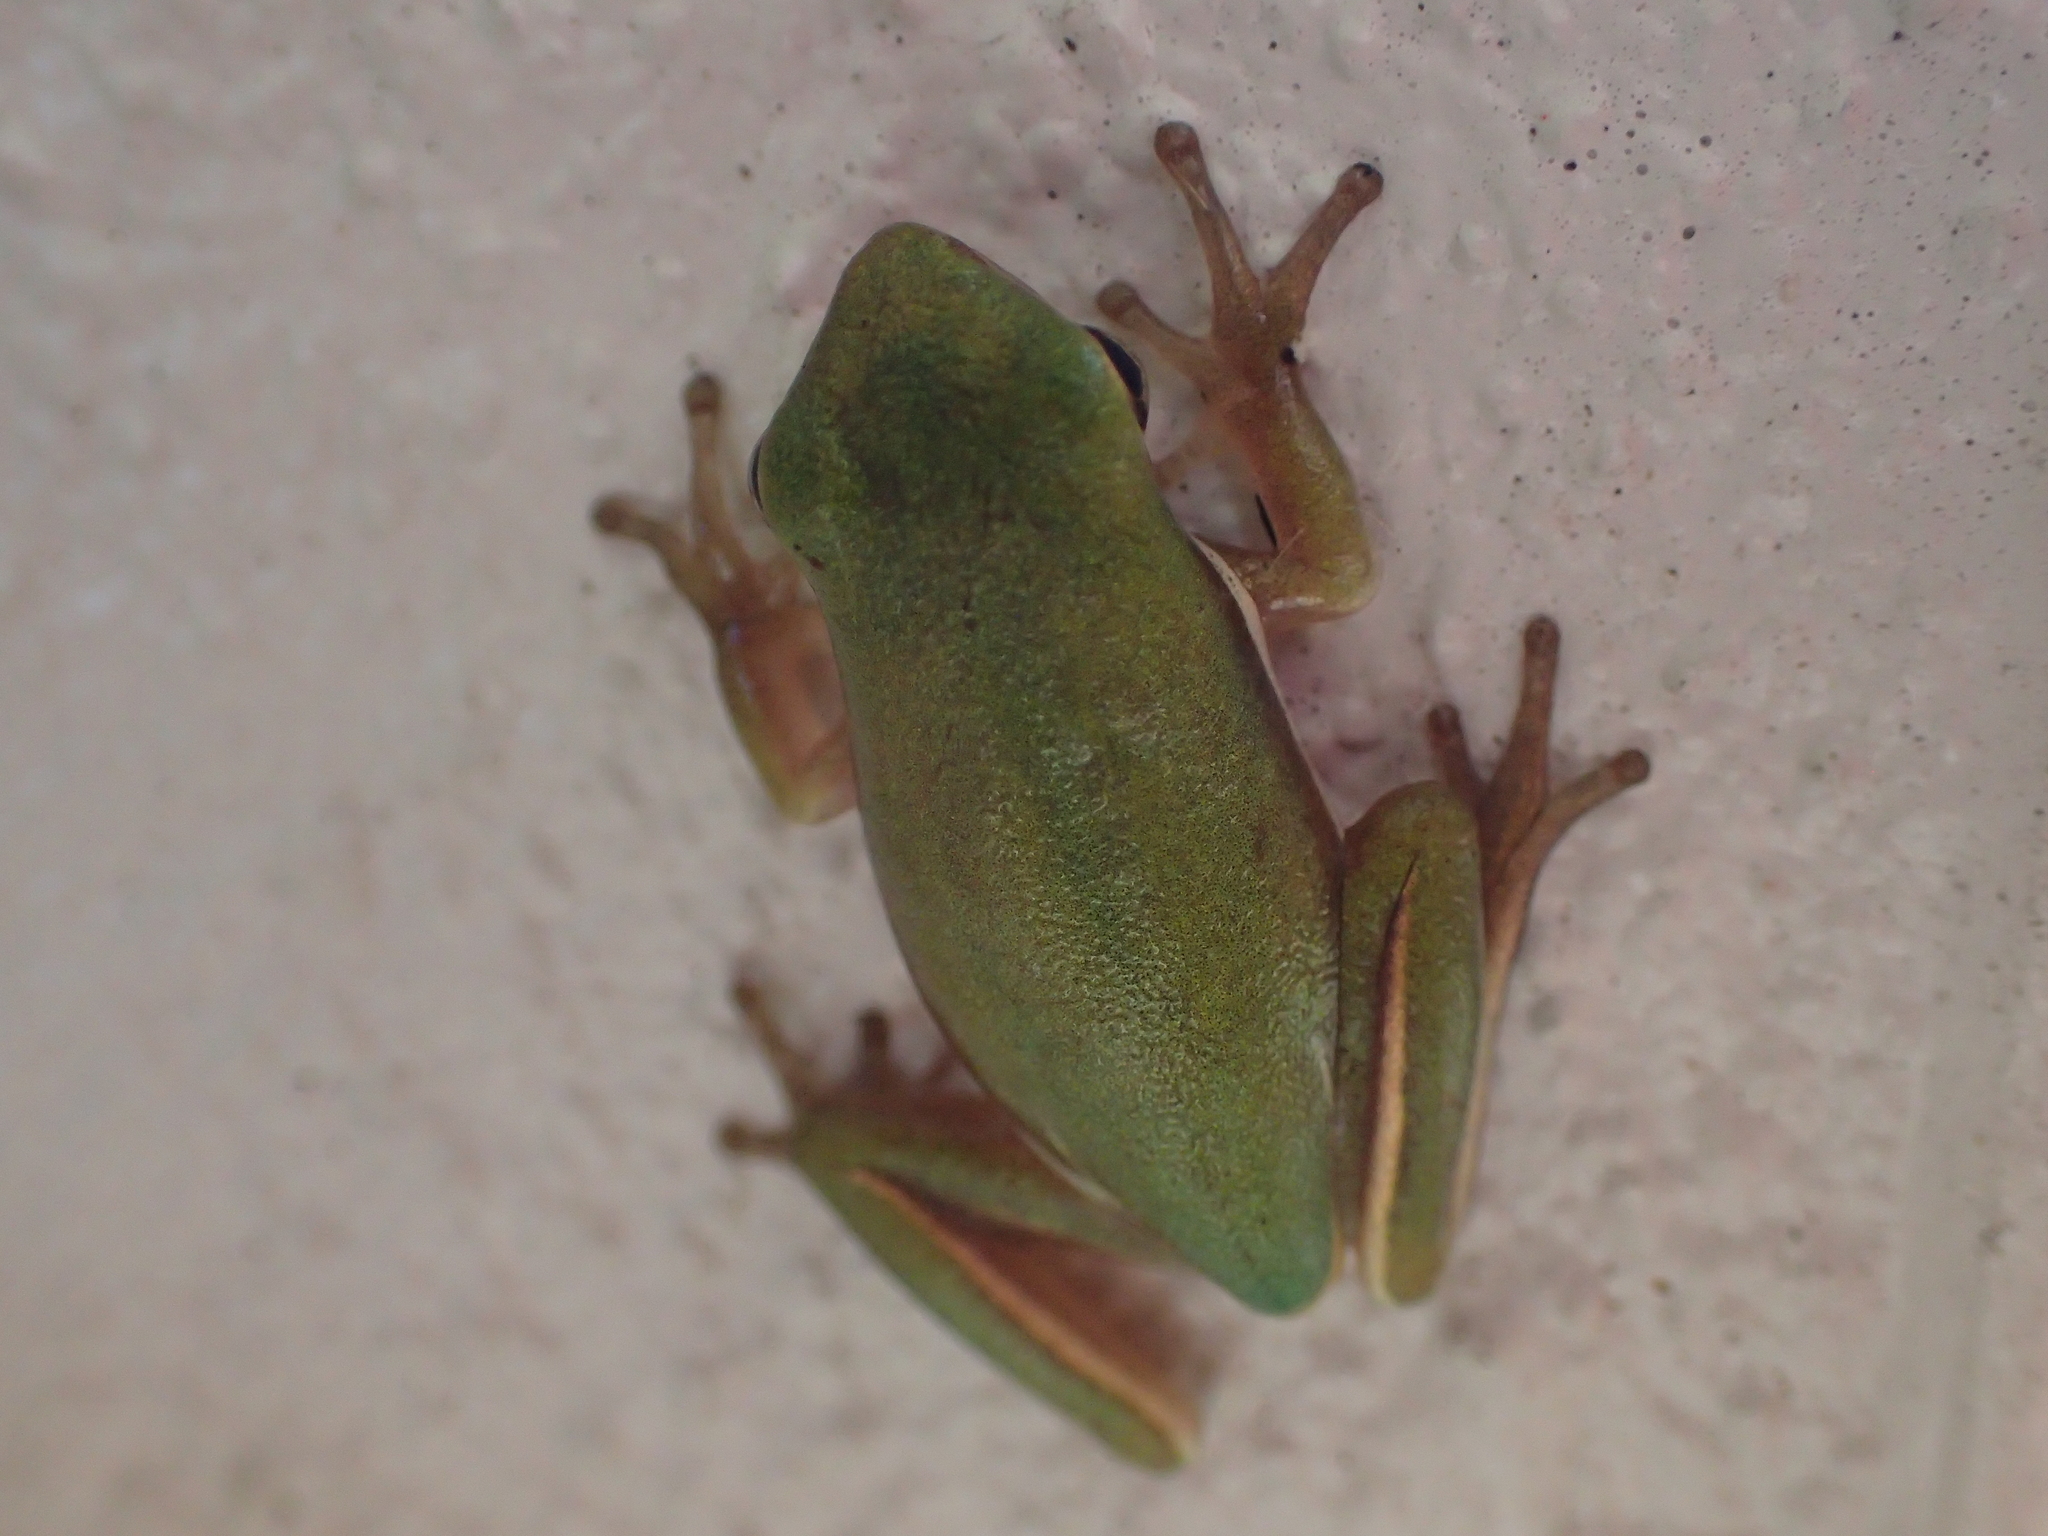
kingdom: Animalia
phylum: Chordata
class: Amphibia
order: Anura
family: Hylidae
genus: Dryophytes
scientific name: Dryophytes cinereus
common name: Green treefrog
